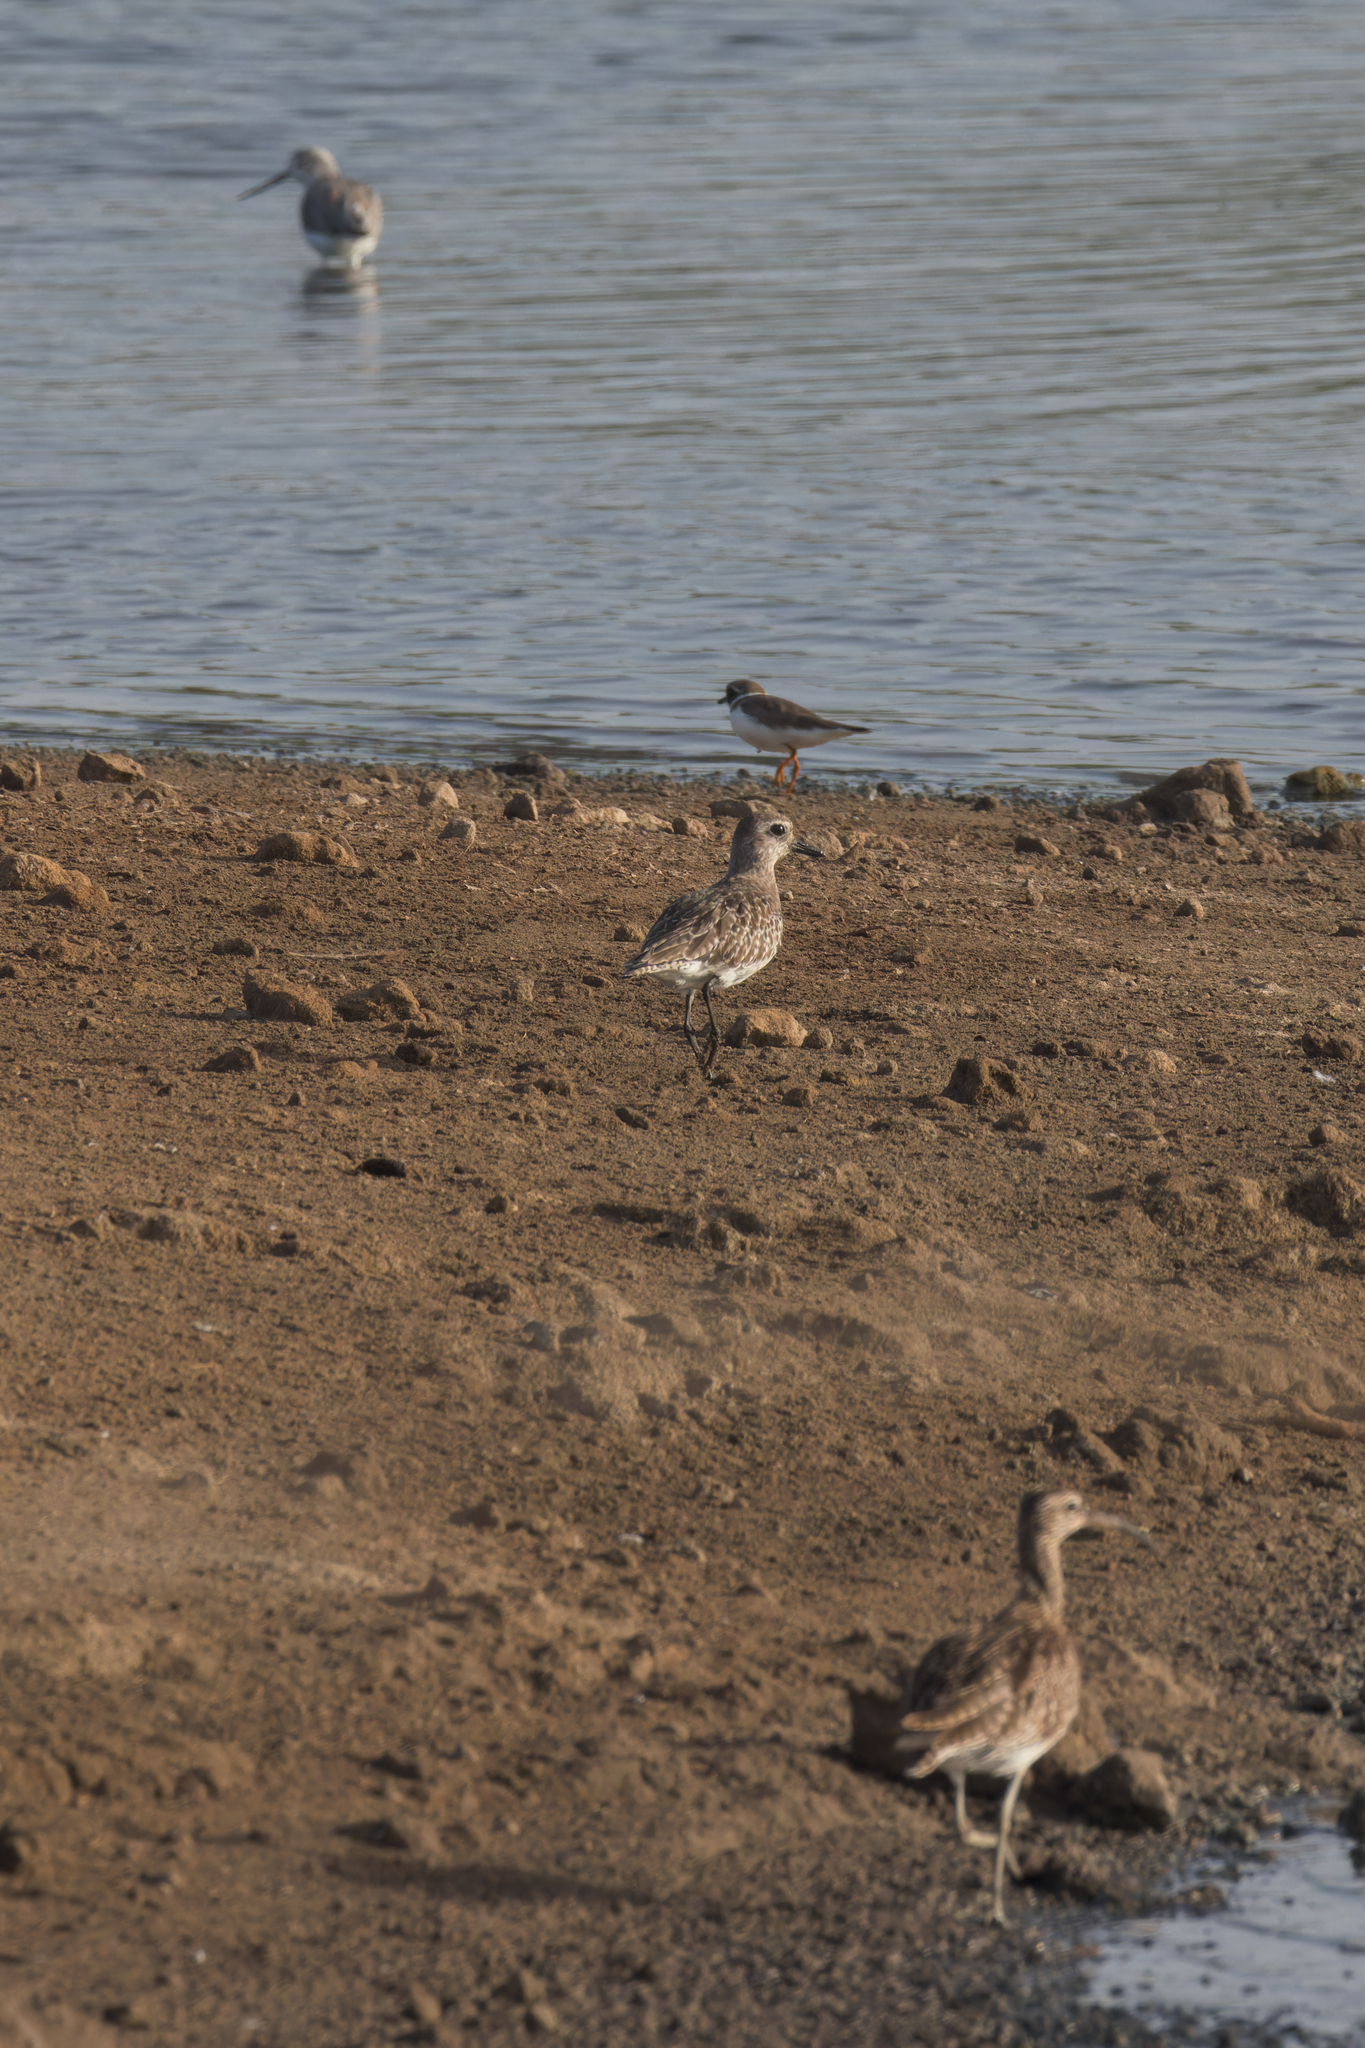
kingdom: Animalia
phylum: Chordata
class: Aves
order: Charadriiformes
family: Charadriidae
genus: Pluvialis
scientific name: Pluvialis squatarola
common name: Grey plover
